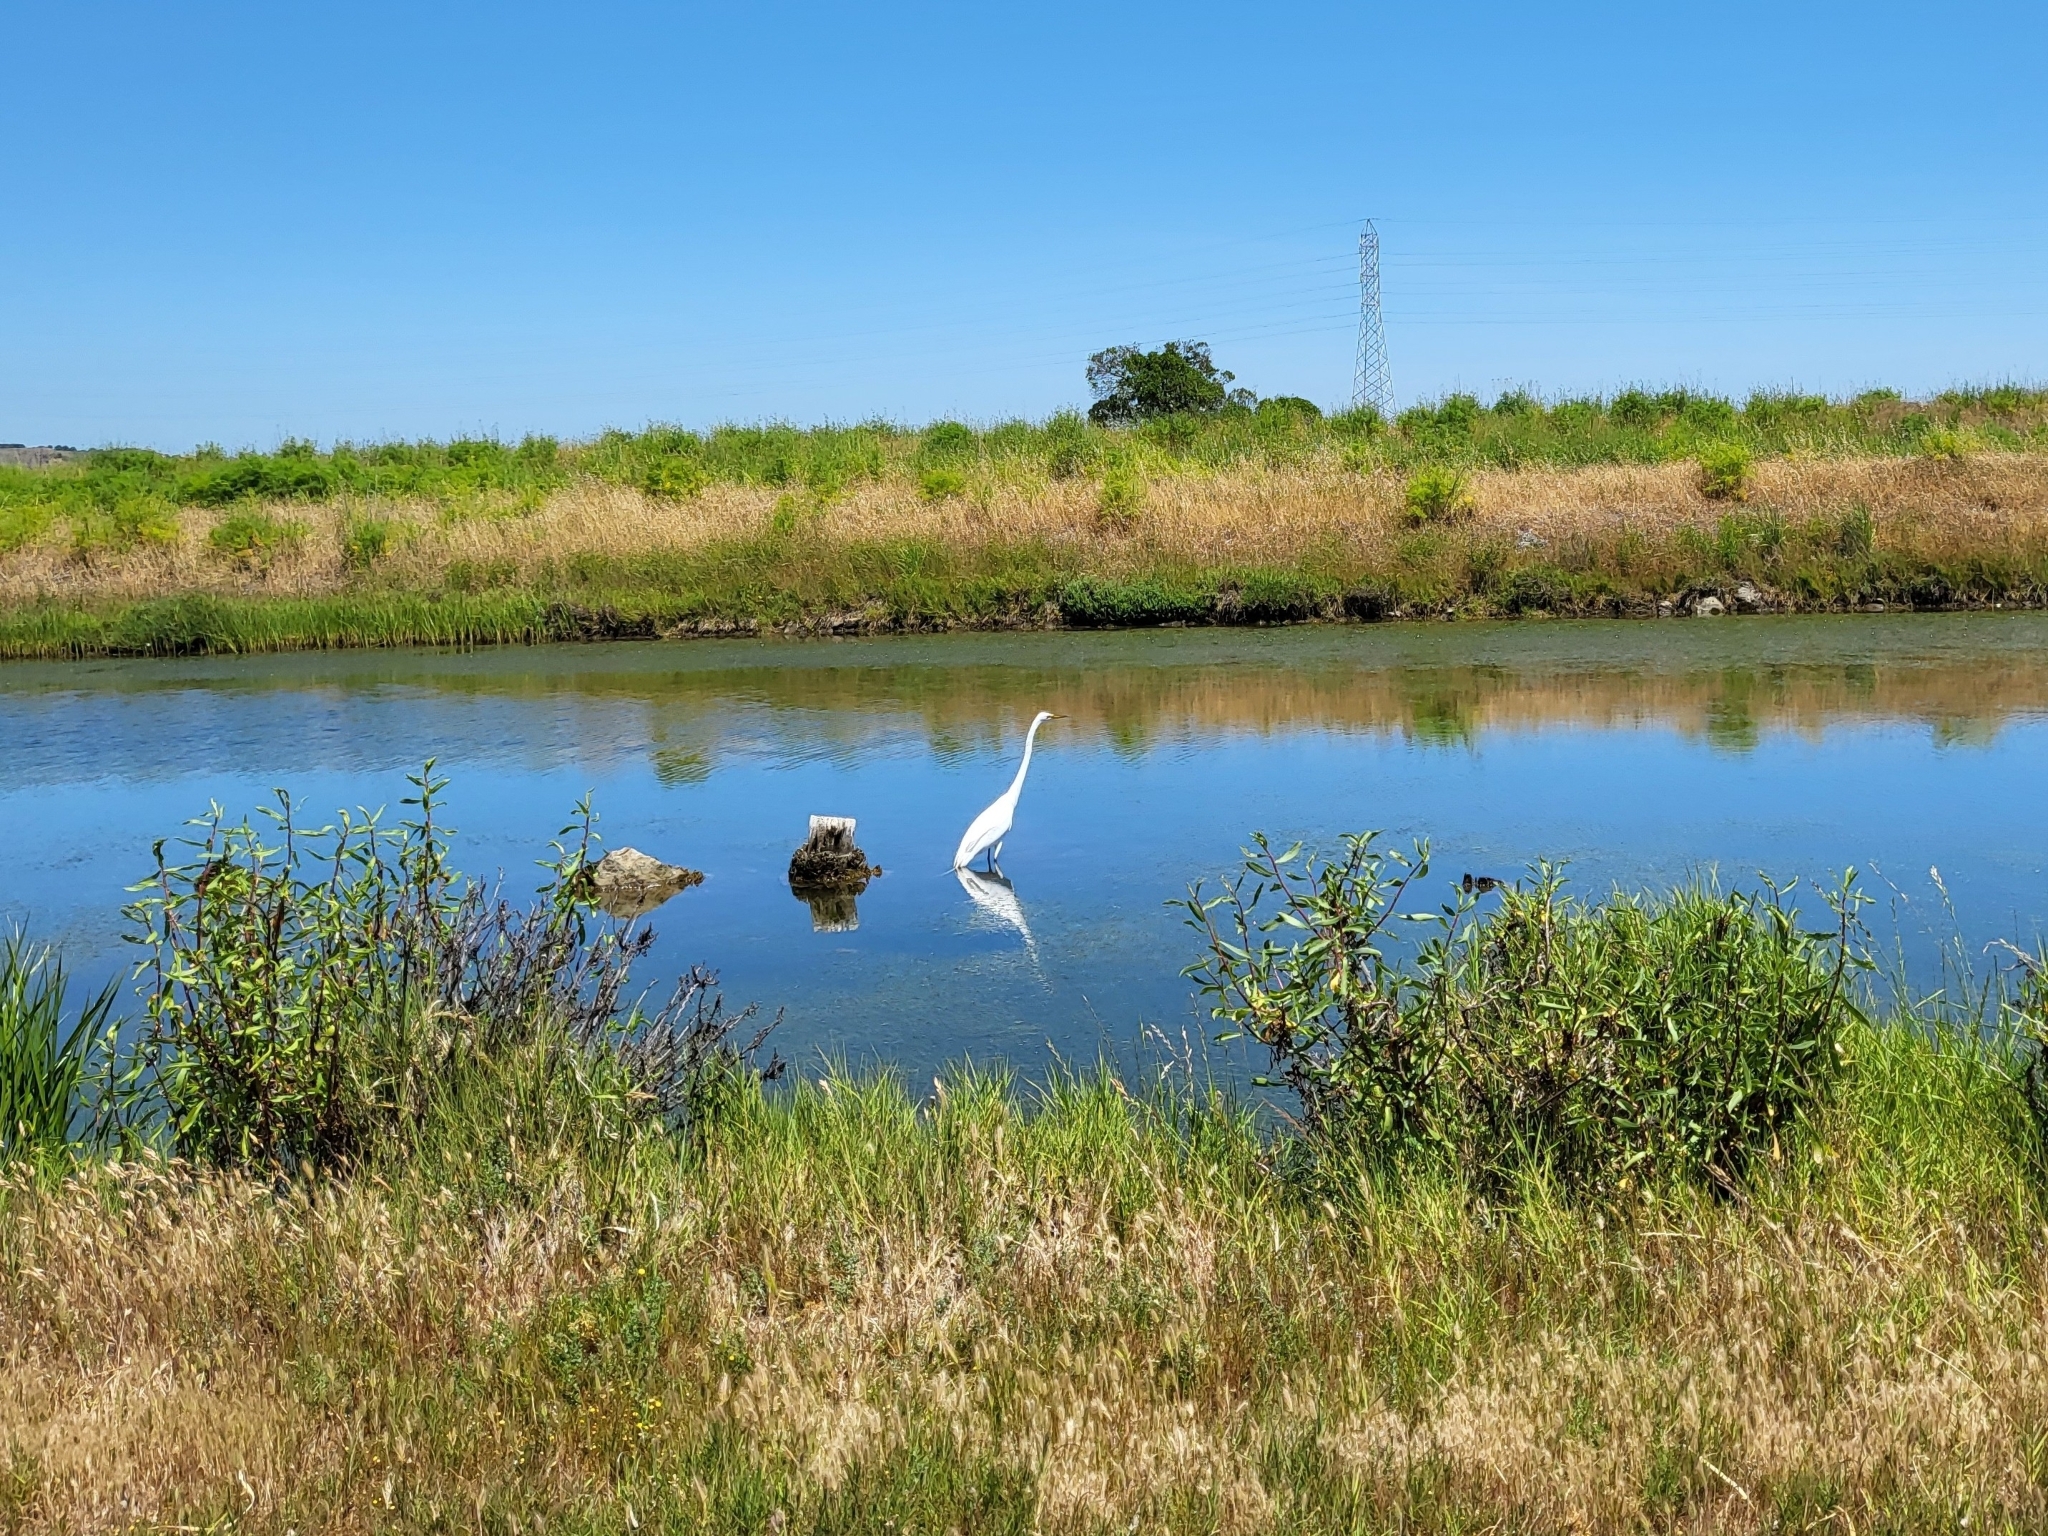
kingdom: Animalia
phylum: Chordata
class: Aves
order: Pelecaniformes
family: Ardeidae
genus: Ardea
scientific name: Ardea alba
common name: Great egret
